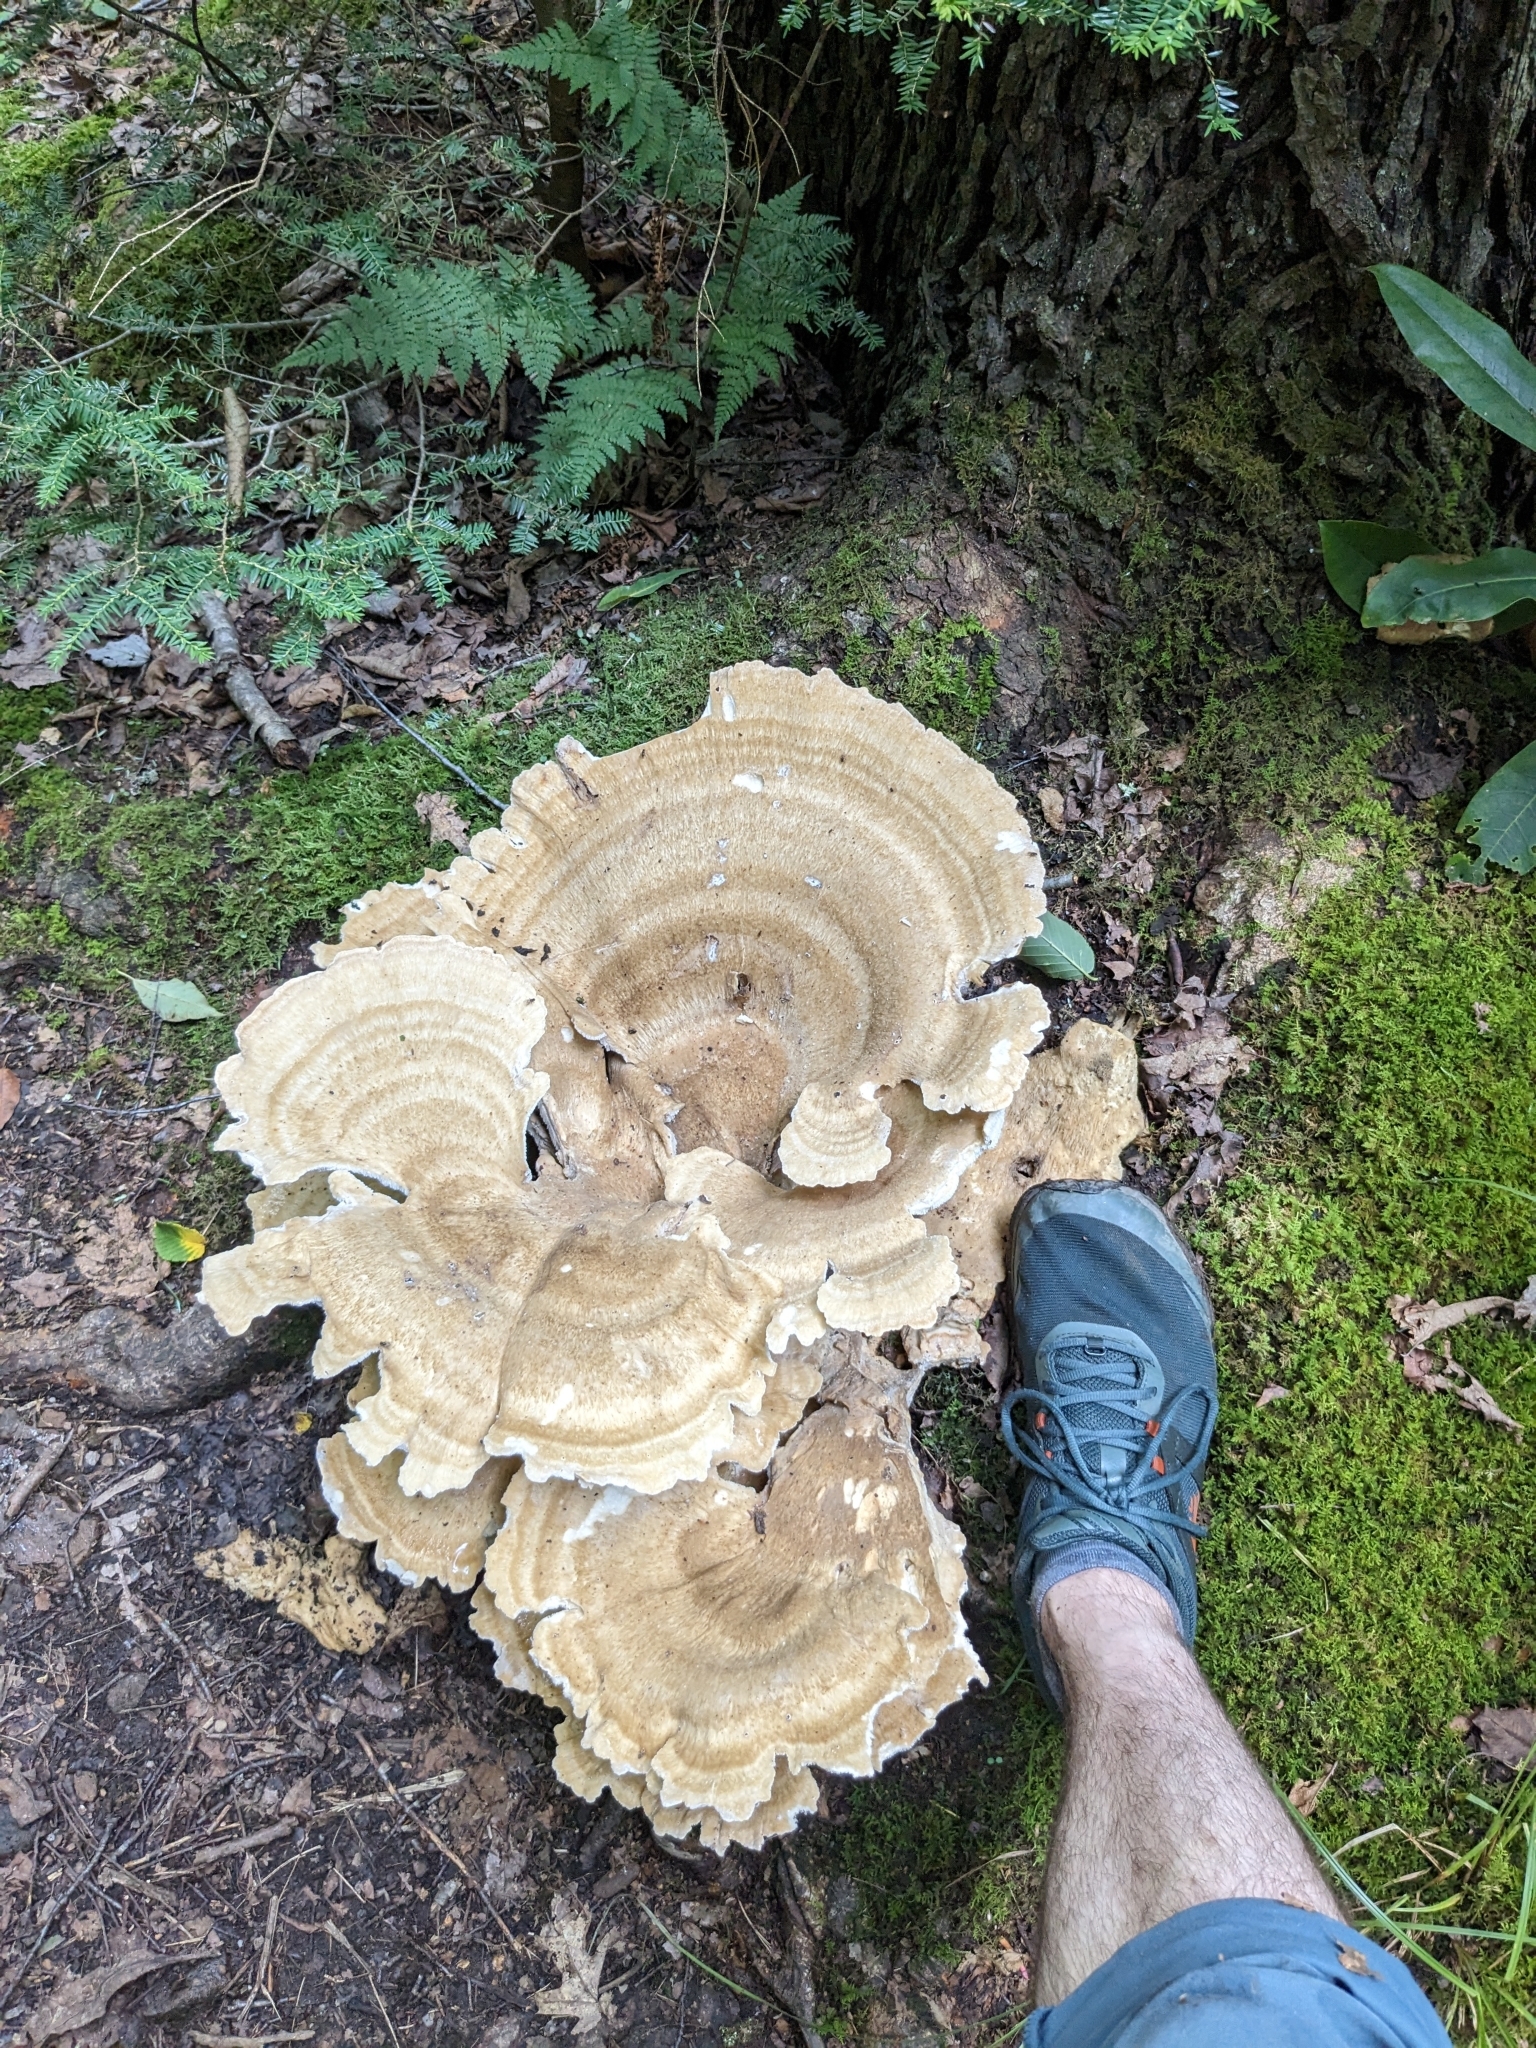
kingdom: Fungi
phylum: Basidiomycota
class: Agaricomycetes
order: Russulales
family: Bondarzewiaceae
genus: Bondarzewia
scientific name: Bondarzewia berkeleyi
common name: Berkeley's polypore
